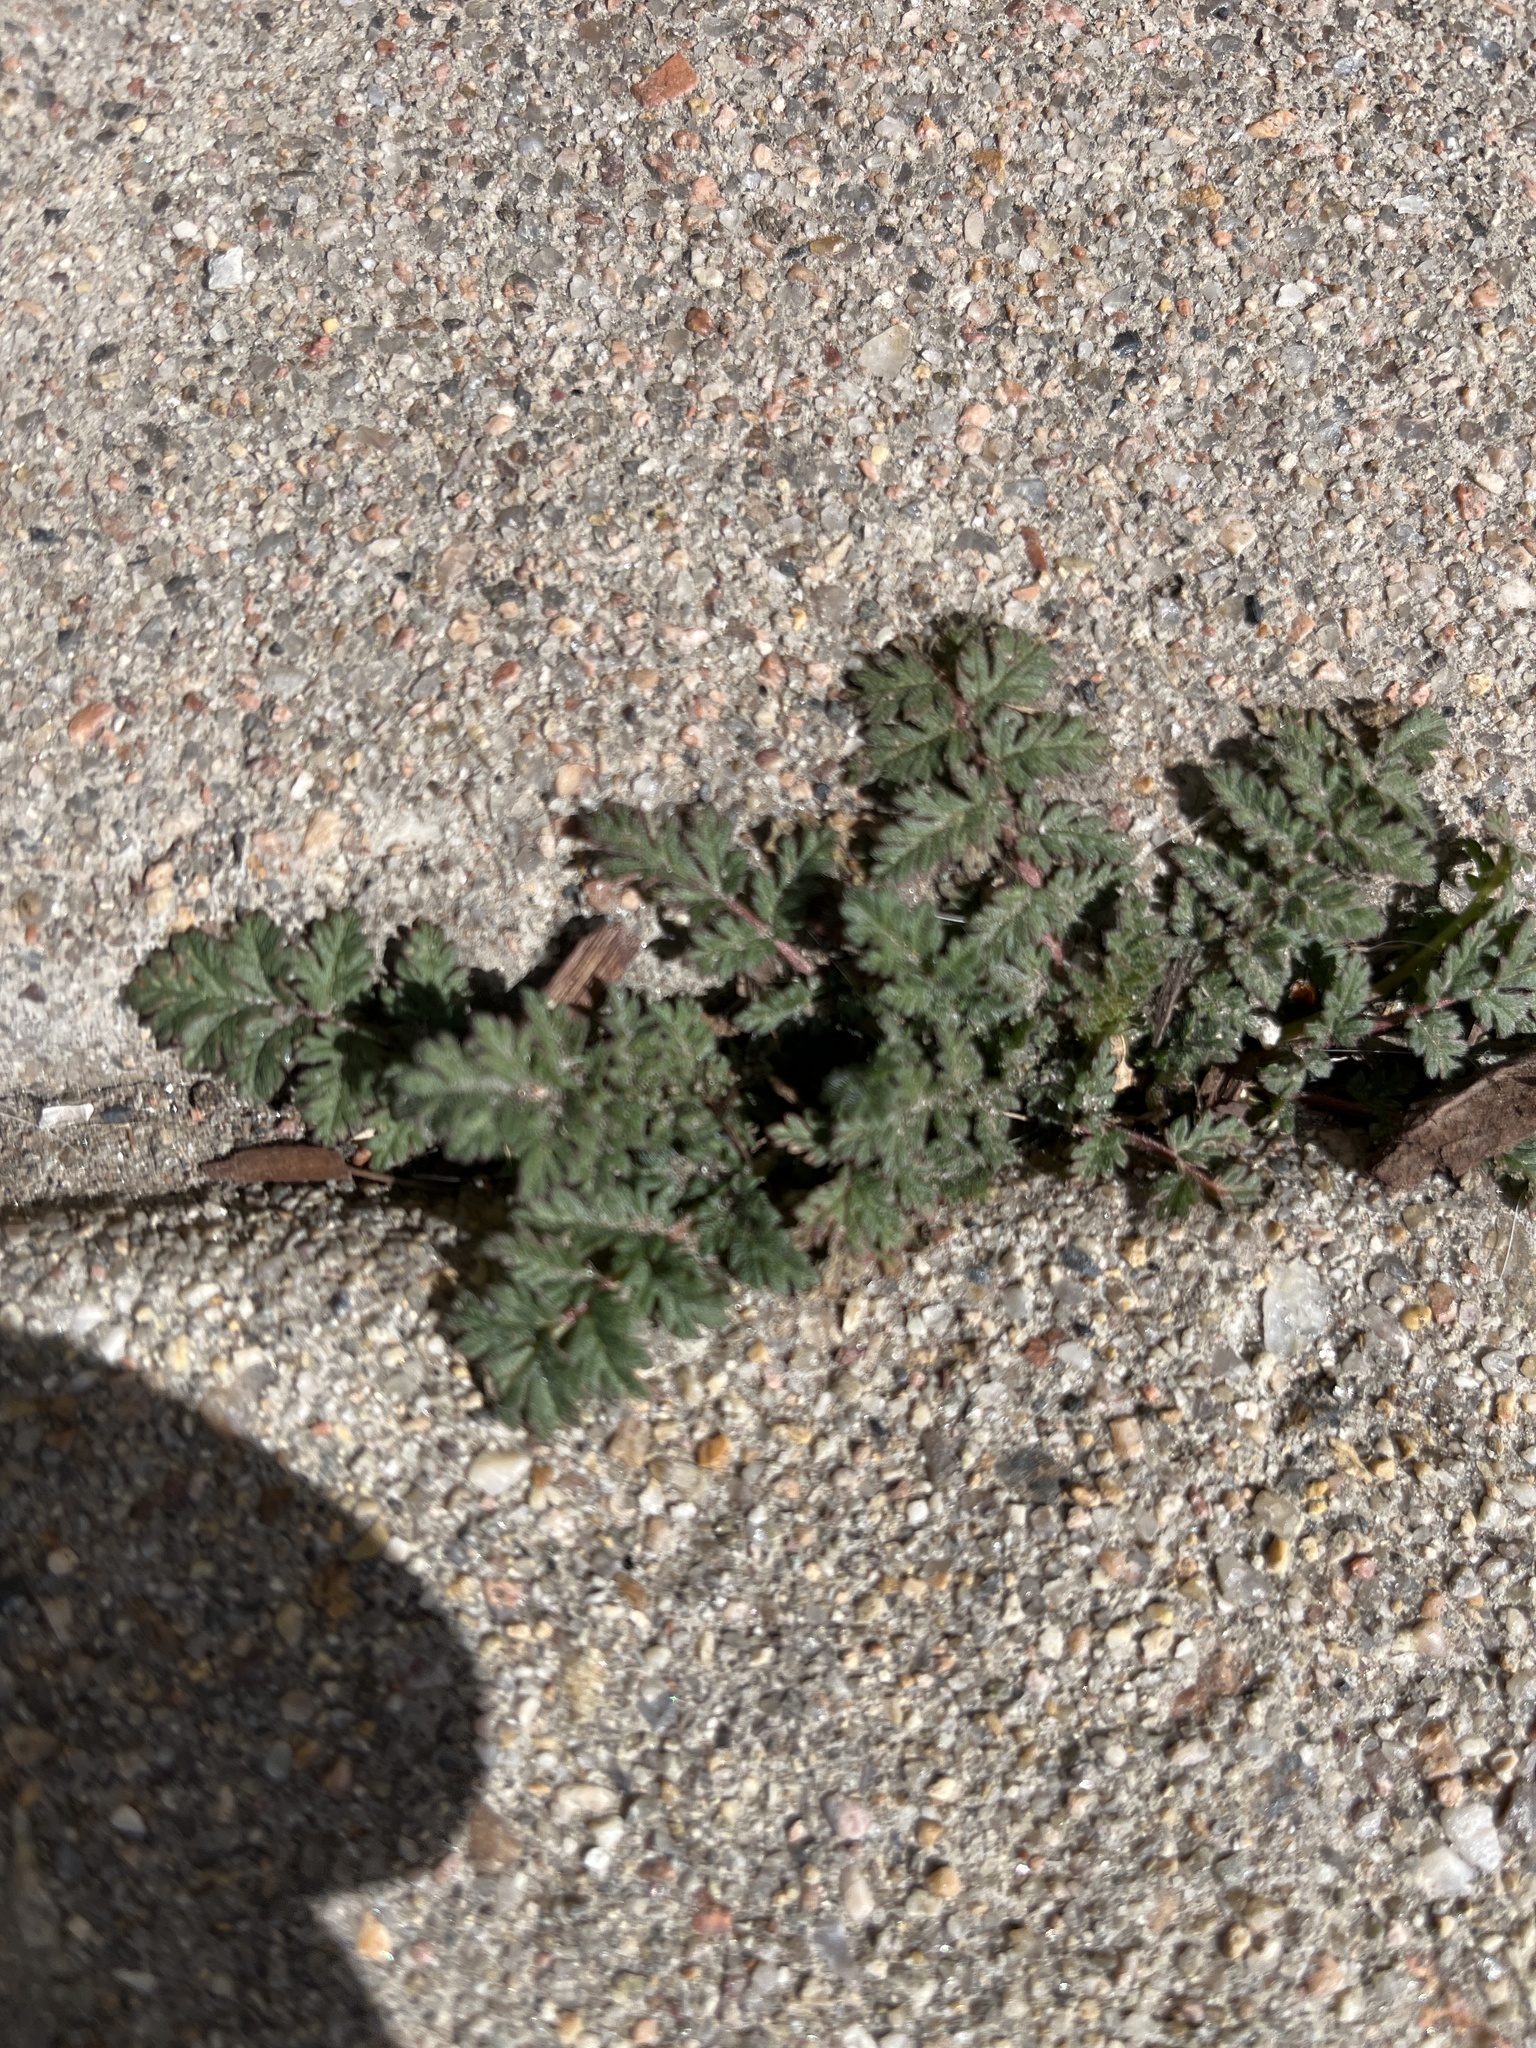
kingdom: Plantae
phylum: Tracheophyta
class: Magnoliopsida
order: Geraniales
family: Geraniaceae
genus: Erodium
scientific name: Erodium cicutarium
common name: Common stork's-bill
